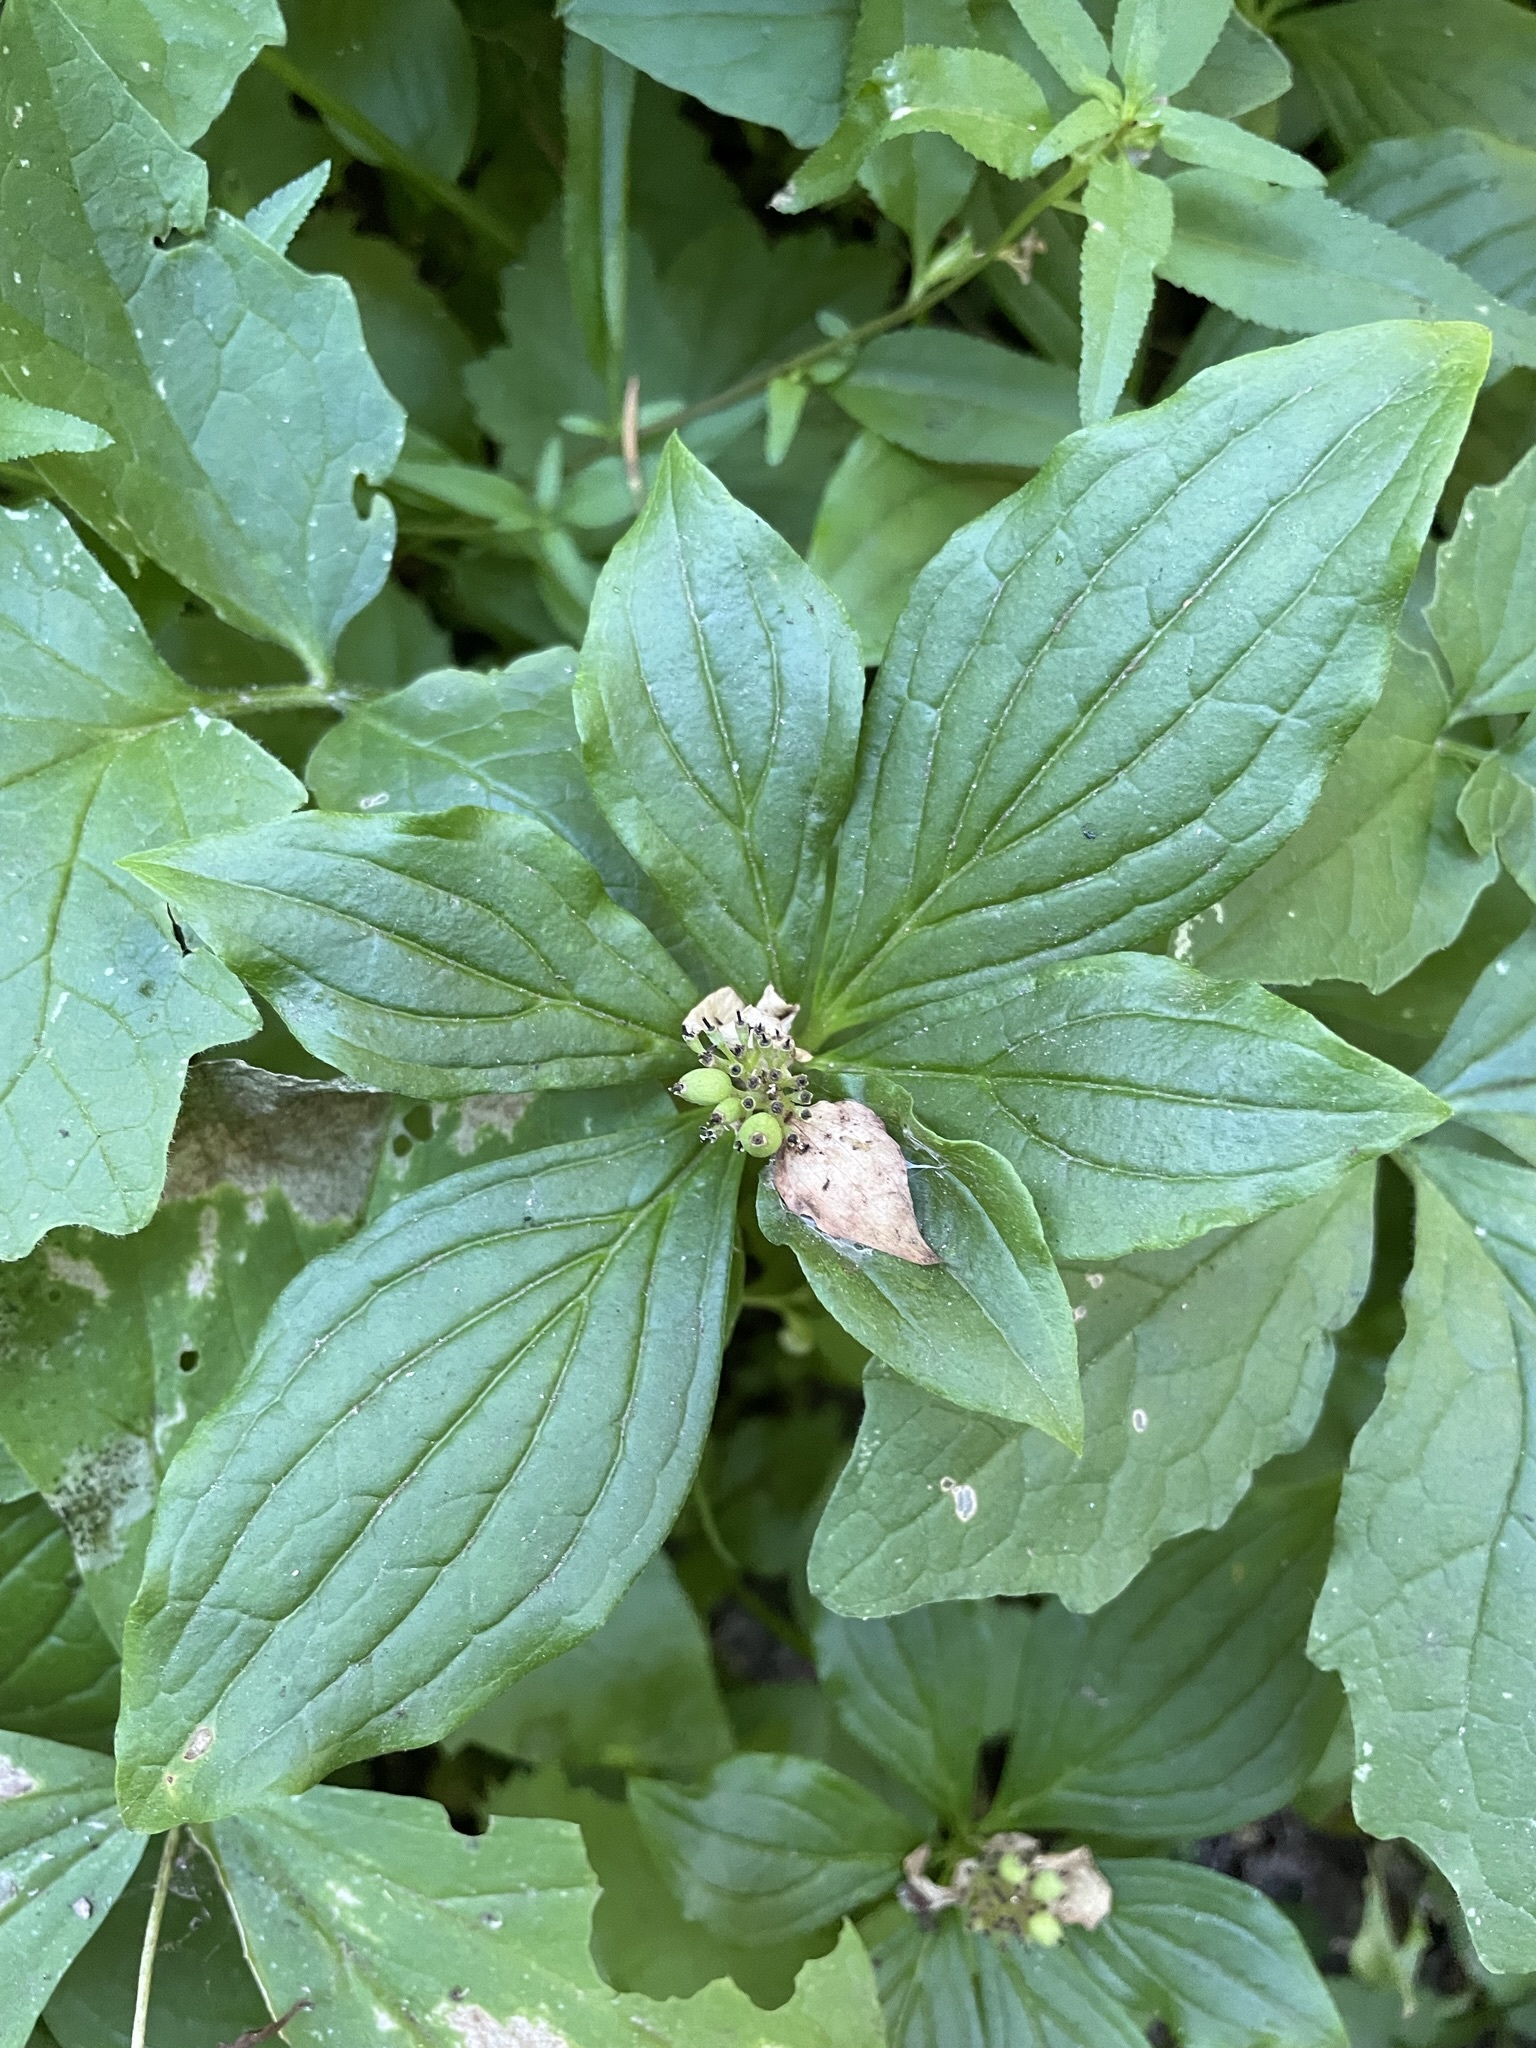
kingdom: Plantae
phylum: Tracheophyta
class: Magnoliopsida
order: Cornales
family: Cornaceae
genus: Cornus
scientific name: Cornus unalaschkensis
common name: Alaska bunchberry
